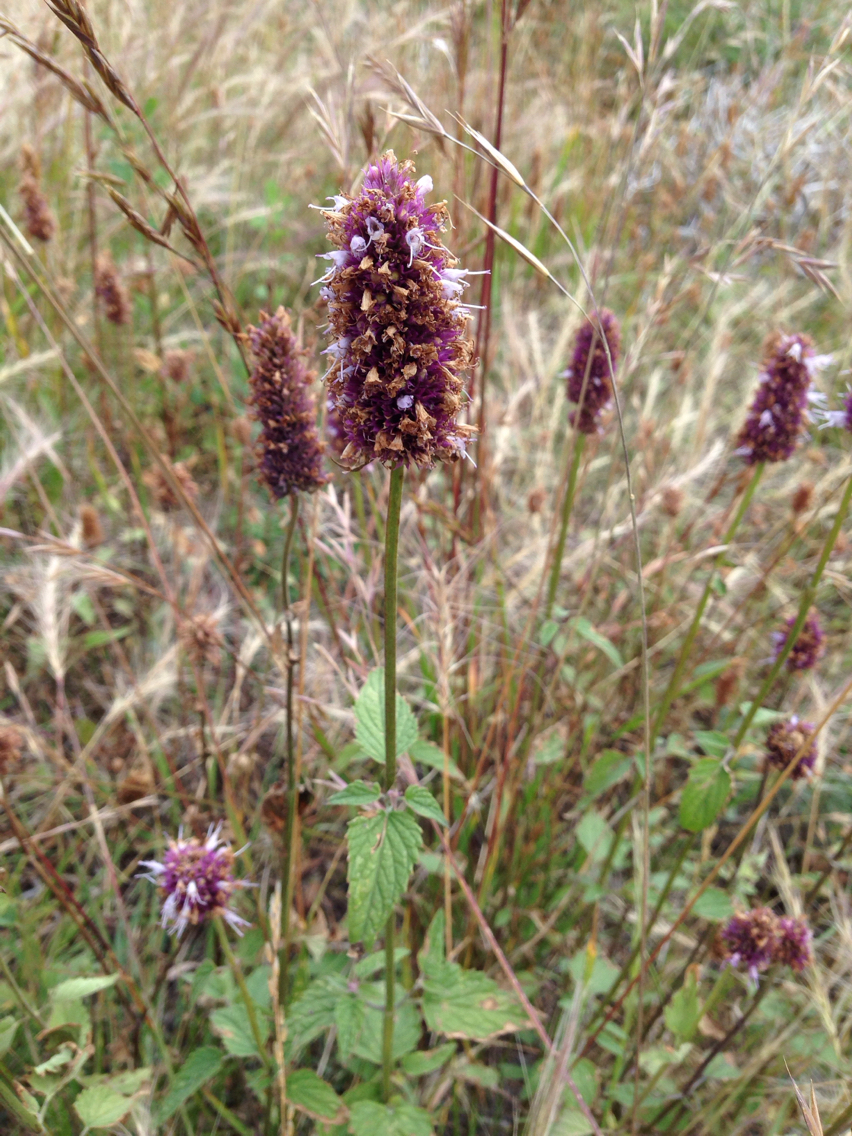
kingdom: Plantae
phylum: Tracheophyta
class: Magnoliopsida
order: Lamiales
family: Lamiaceae
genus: Agastache
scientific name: Agastache urticifolia
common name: Horsemint giant hyssop
